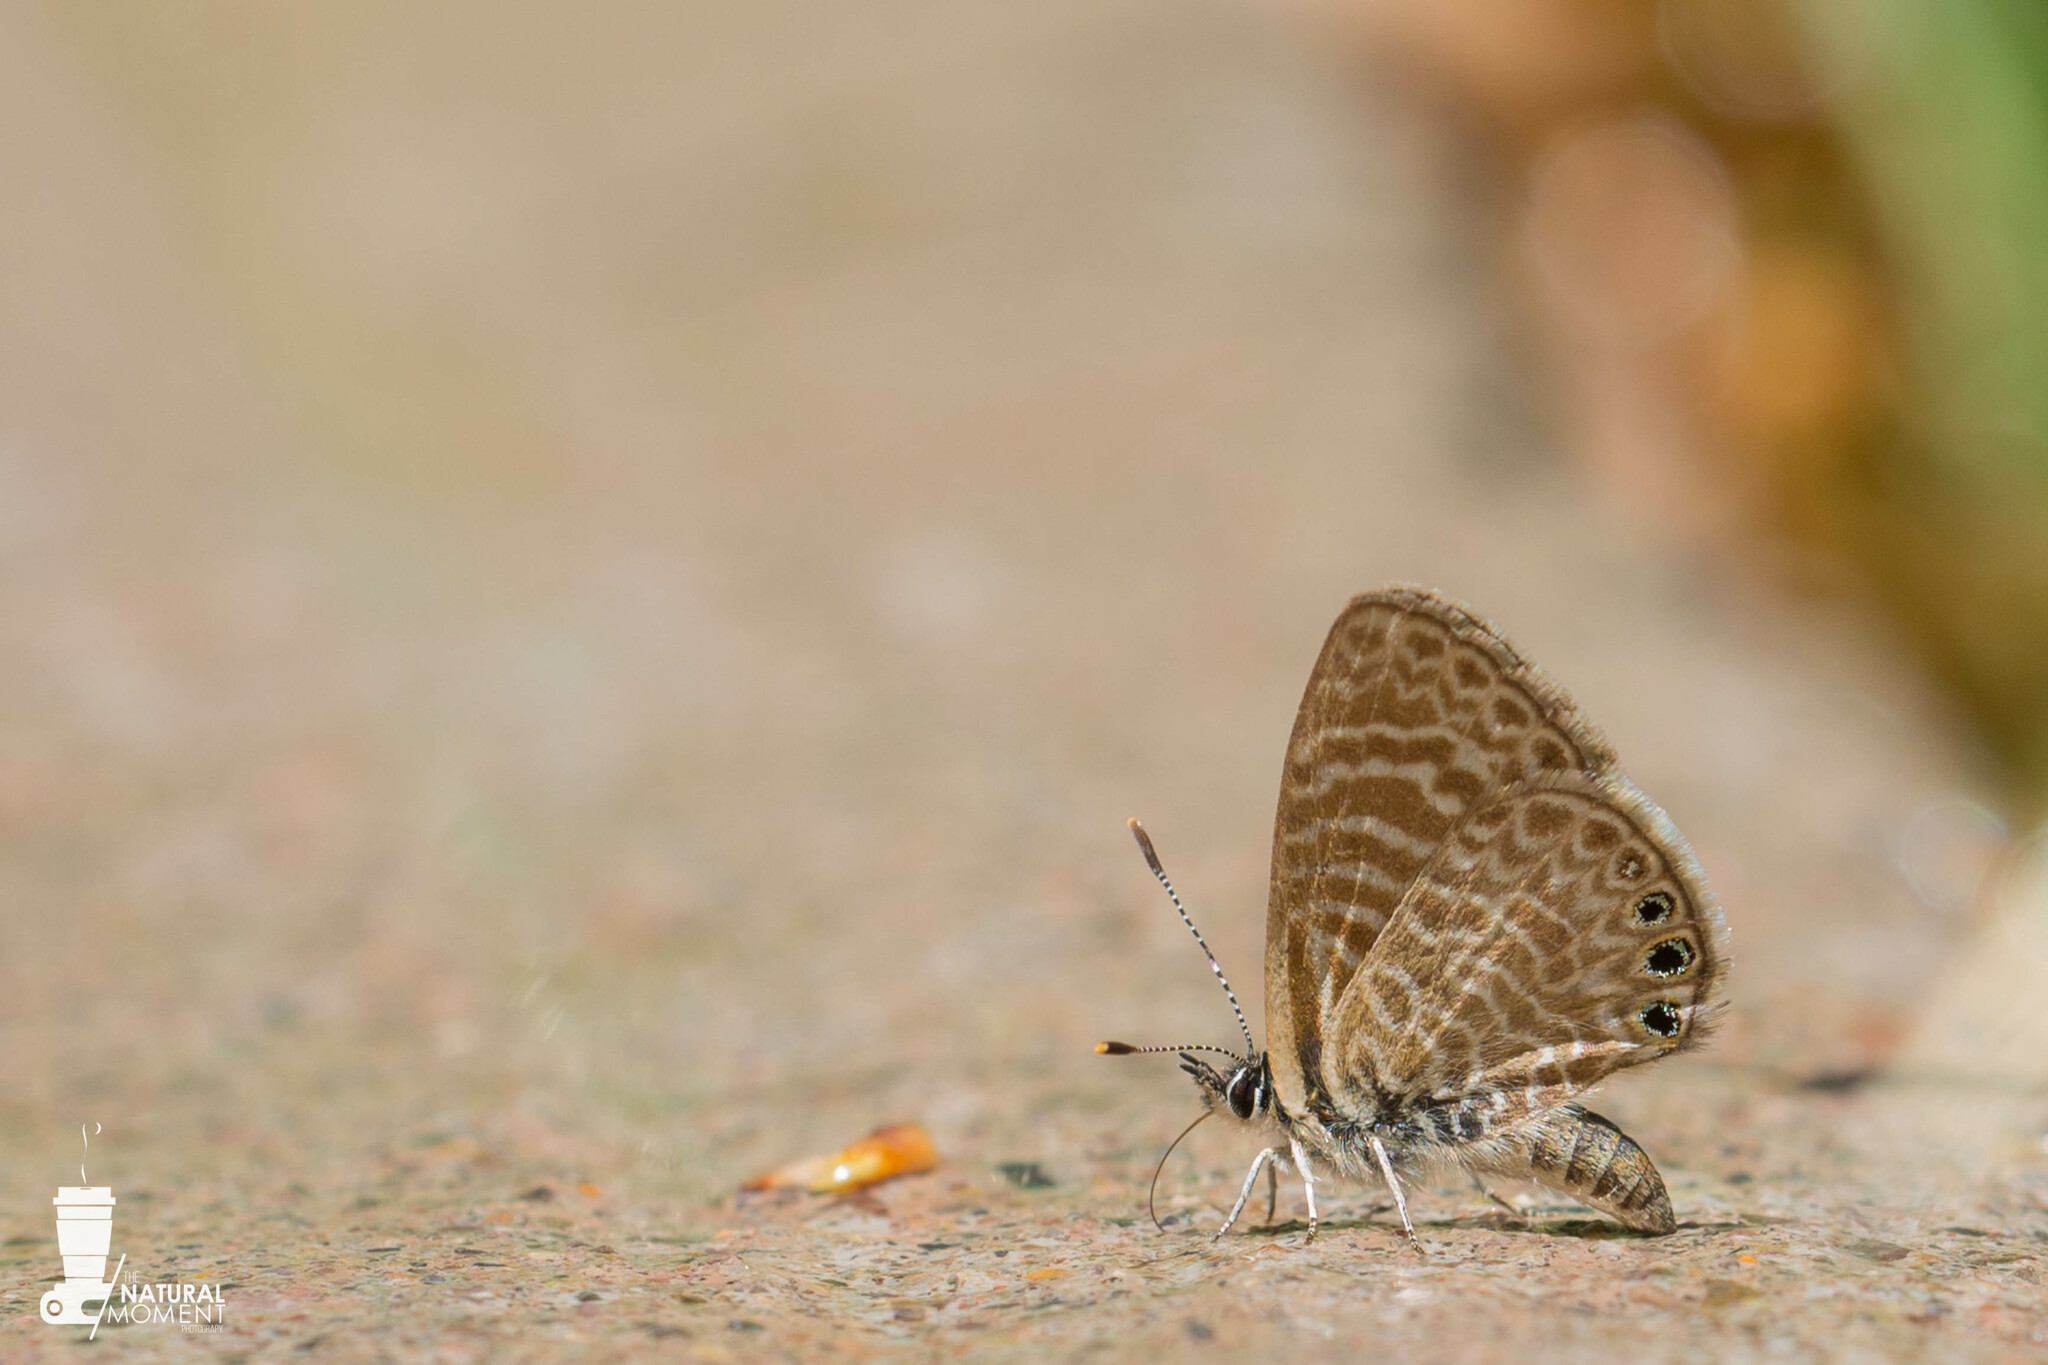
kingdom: Animalia
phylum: Arthropoda
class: Insecta
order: Lepidoptera
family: Lycaenidae
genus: Leptotes
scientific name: Leptotes trigemmatus
